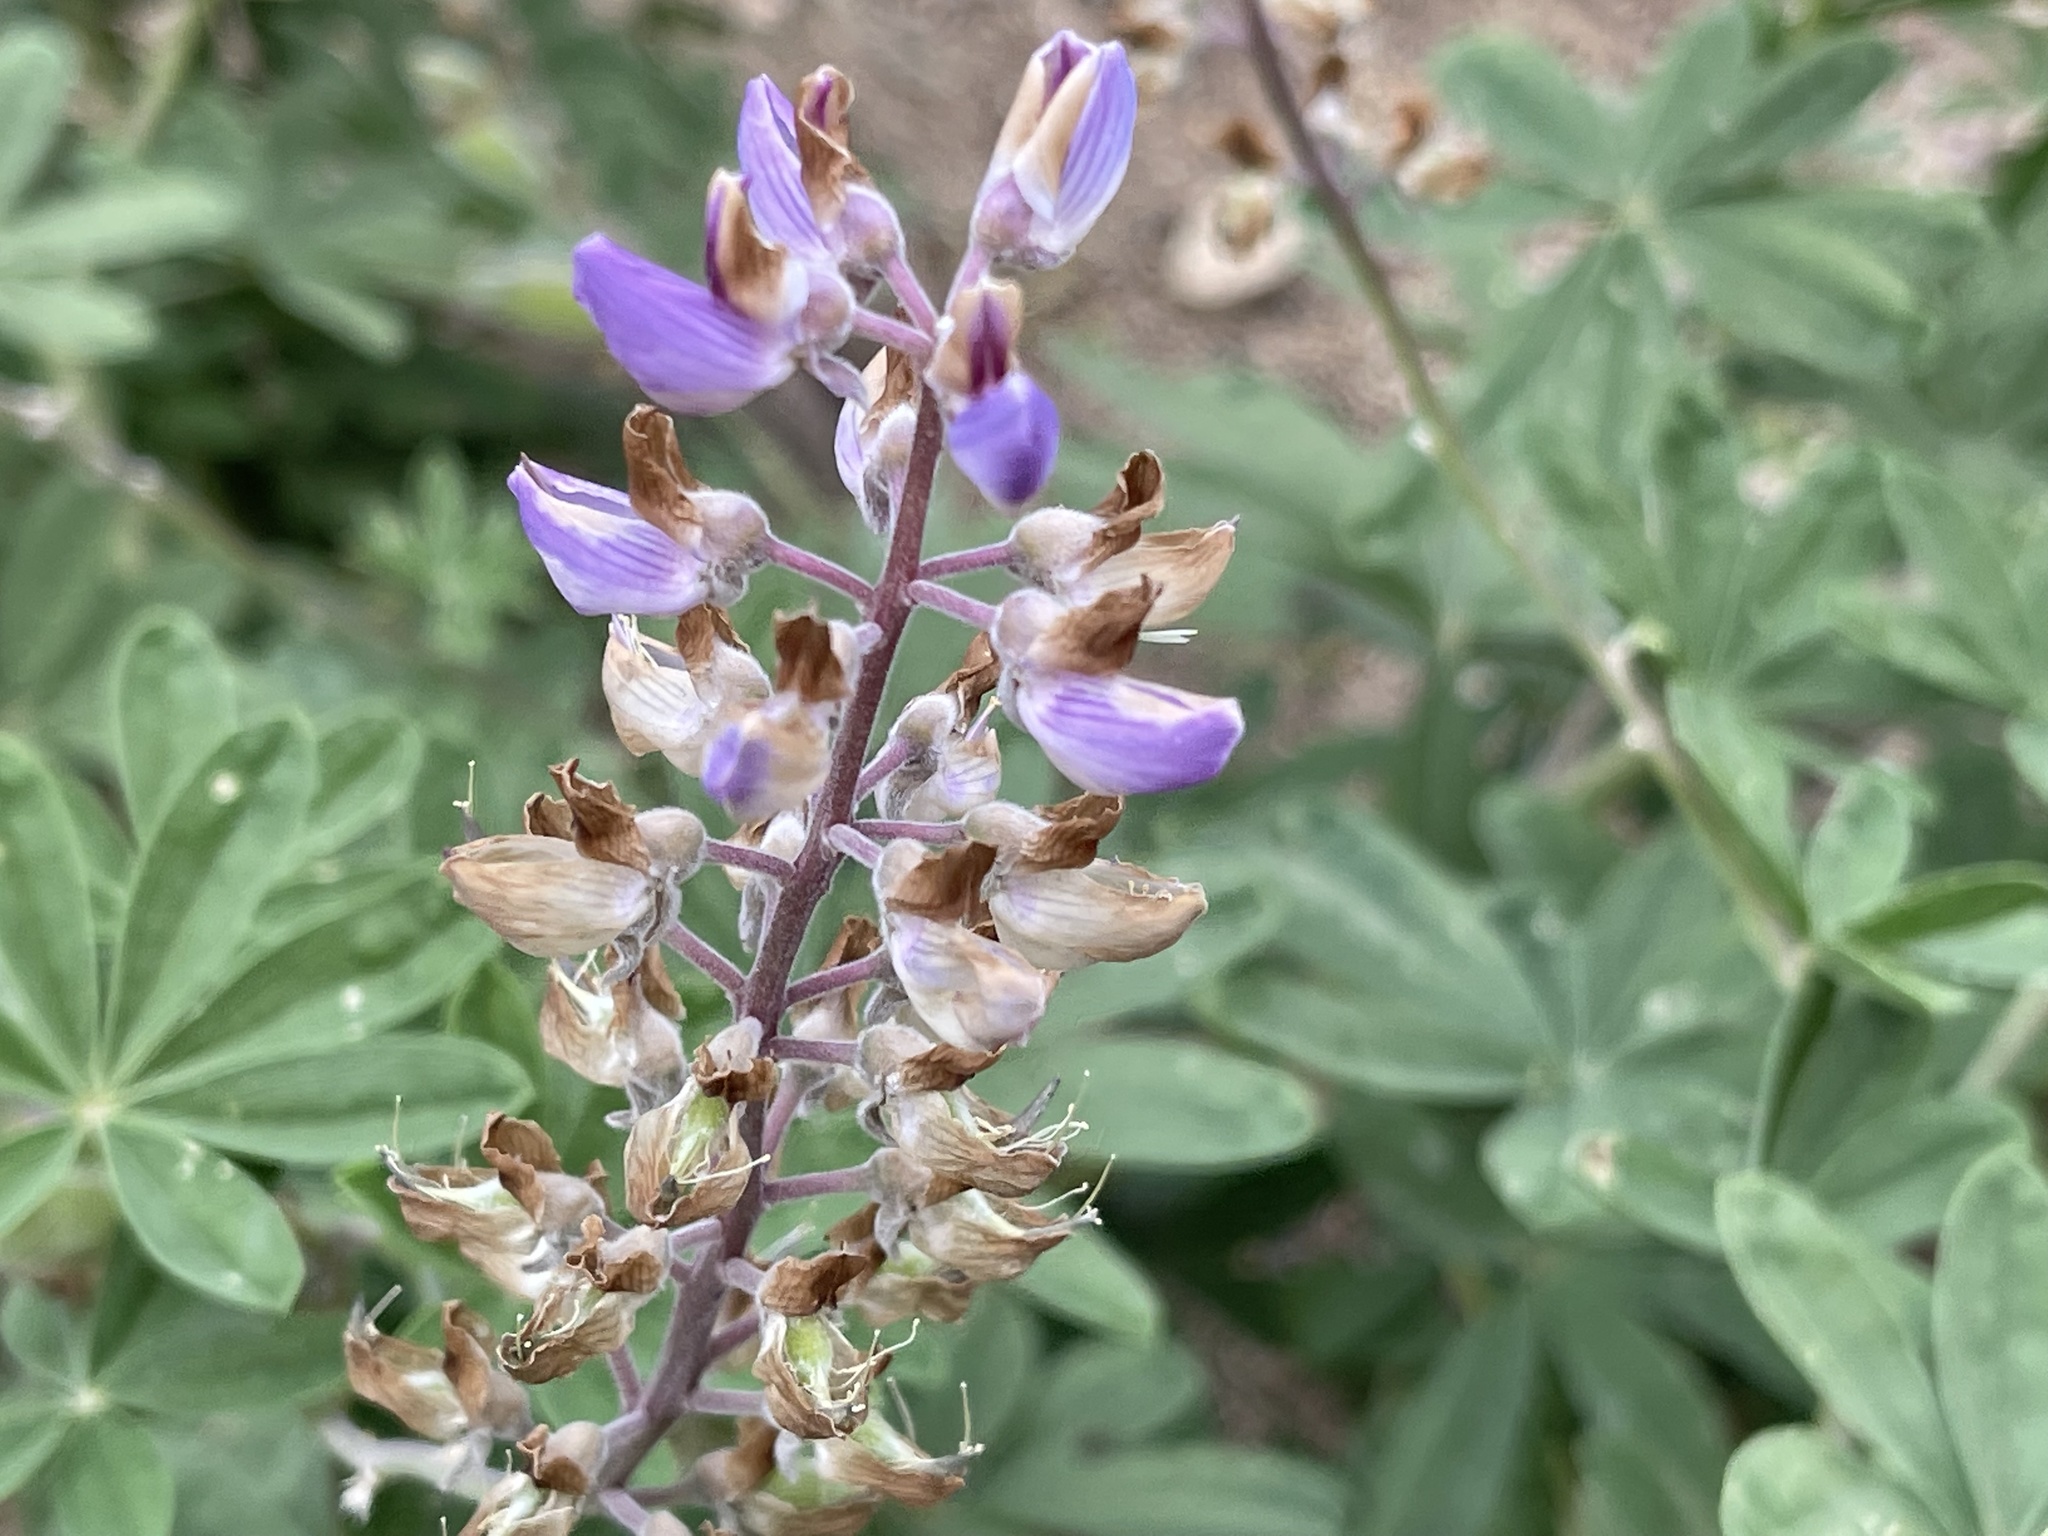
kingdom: Plantae
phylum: Tracheophyta
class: Magnoliopsida
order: Fabales
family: Fabaceae
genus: Lupinus
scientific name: Lupinus latifolius
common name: Broad-leaved lupine
